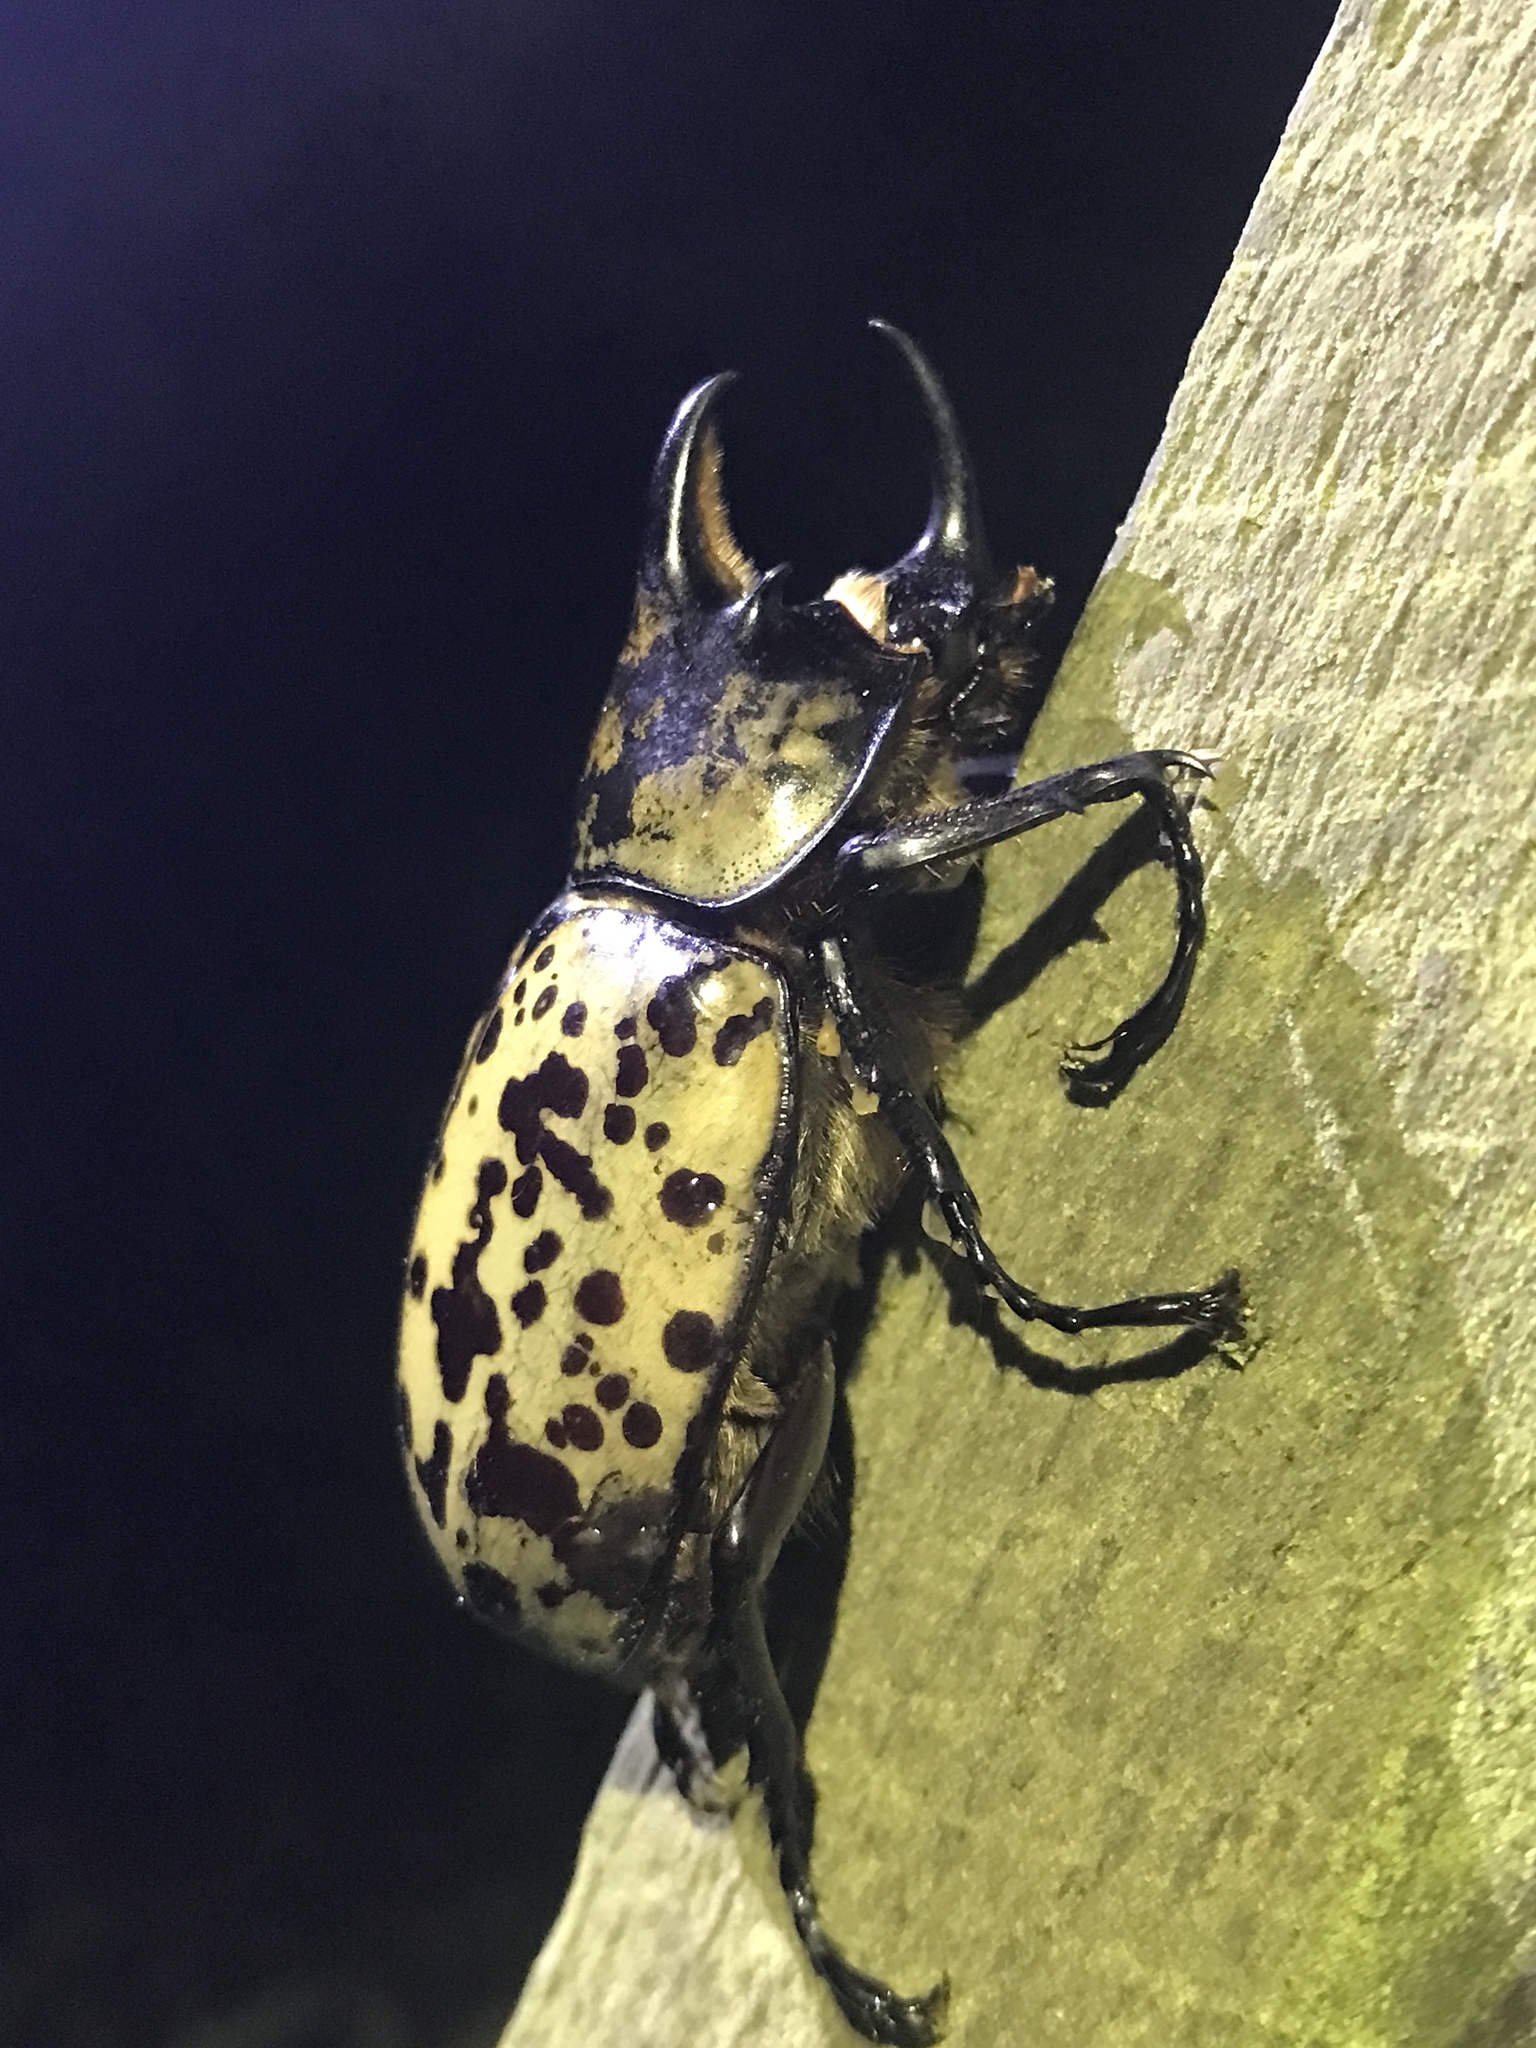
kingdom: Animalia
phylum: Arthropoda
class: Insecta
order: Coleoptera
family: Scarabaeidae
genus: Dynastes
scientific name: Dynastes tityus
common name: Eastern hercules beetle
